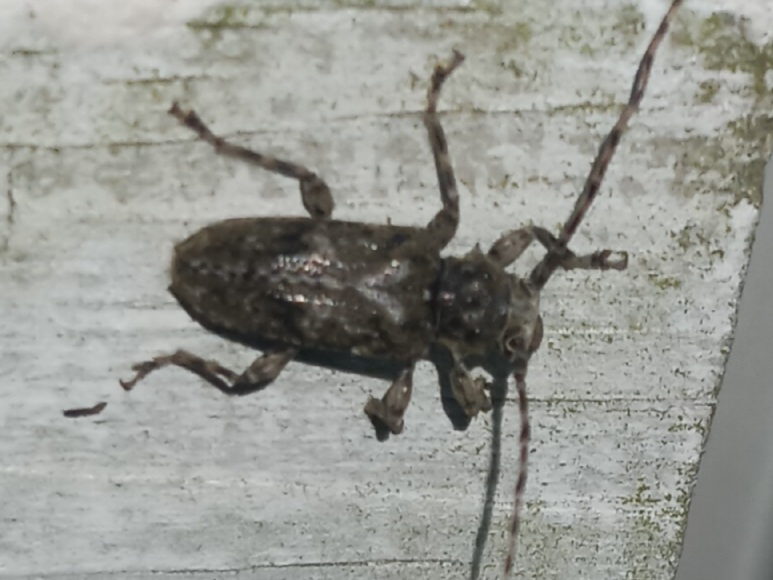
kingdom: Animalia
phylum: Arthropoda
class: Insecta
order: Coleoptera
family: Cerambycidae
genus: Aegomorphus
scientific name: Aegomorphus modestus
